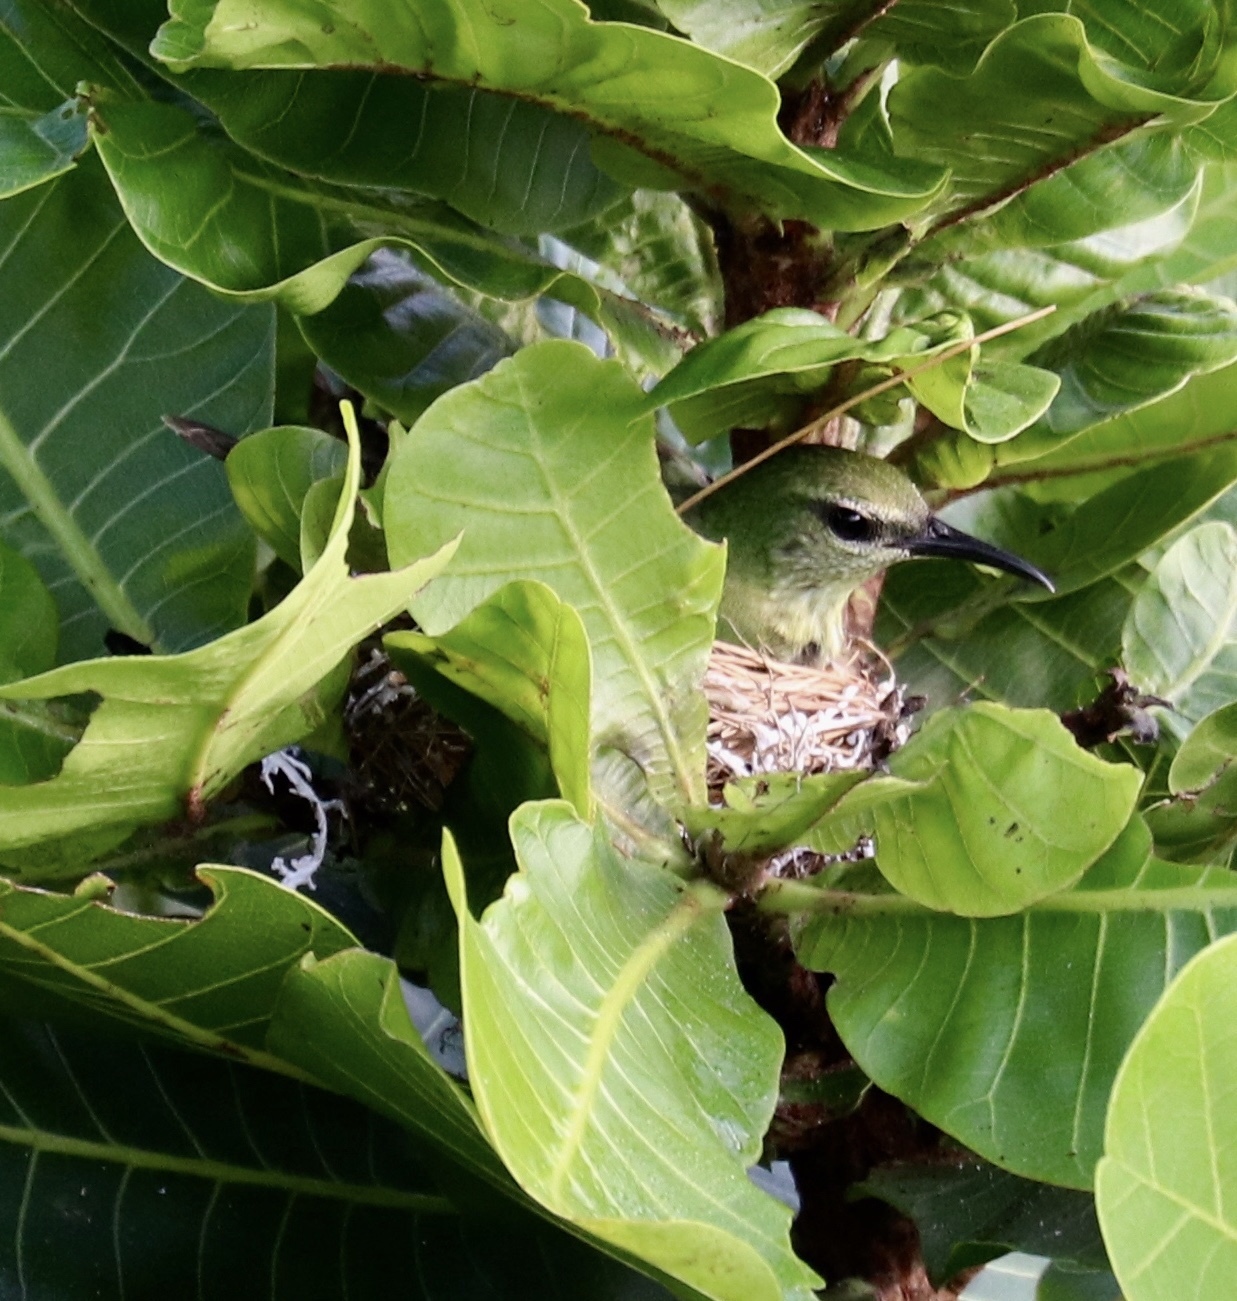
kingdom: Animalia
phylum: Chordata
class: Aves
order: Passeriformes
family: Thraupidae
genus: Cyanerpes
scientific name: Cyanerpes cyaneus
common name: Red-legged honeycreeper
